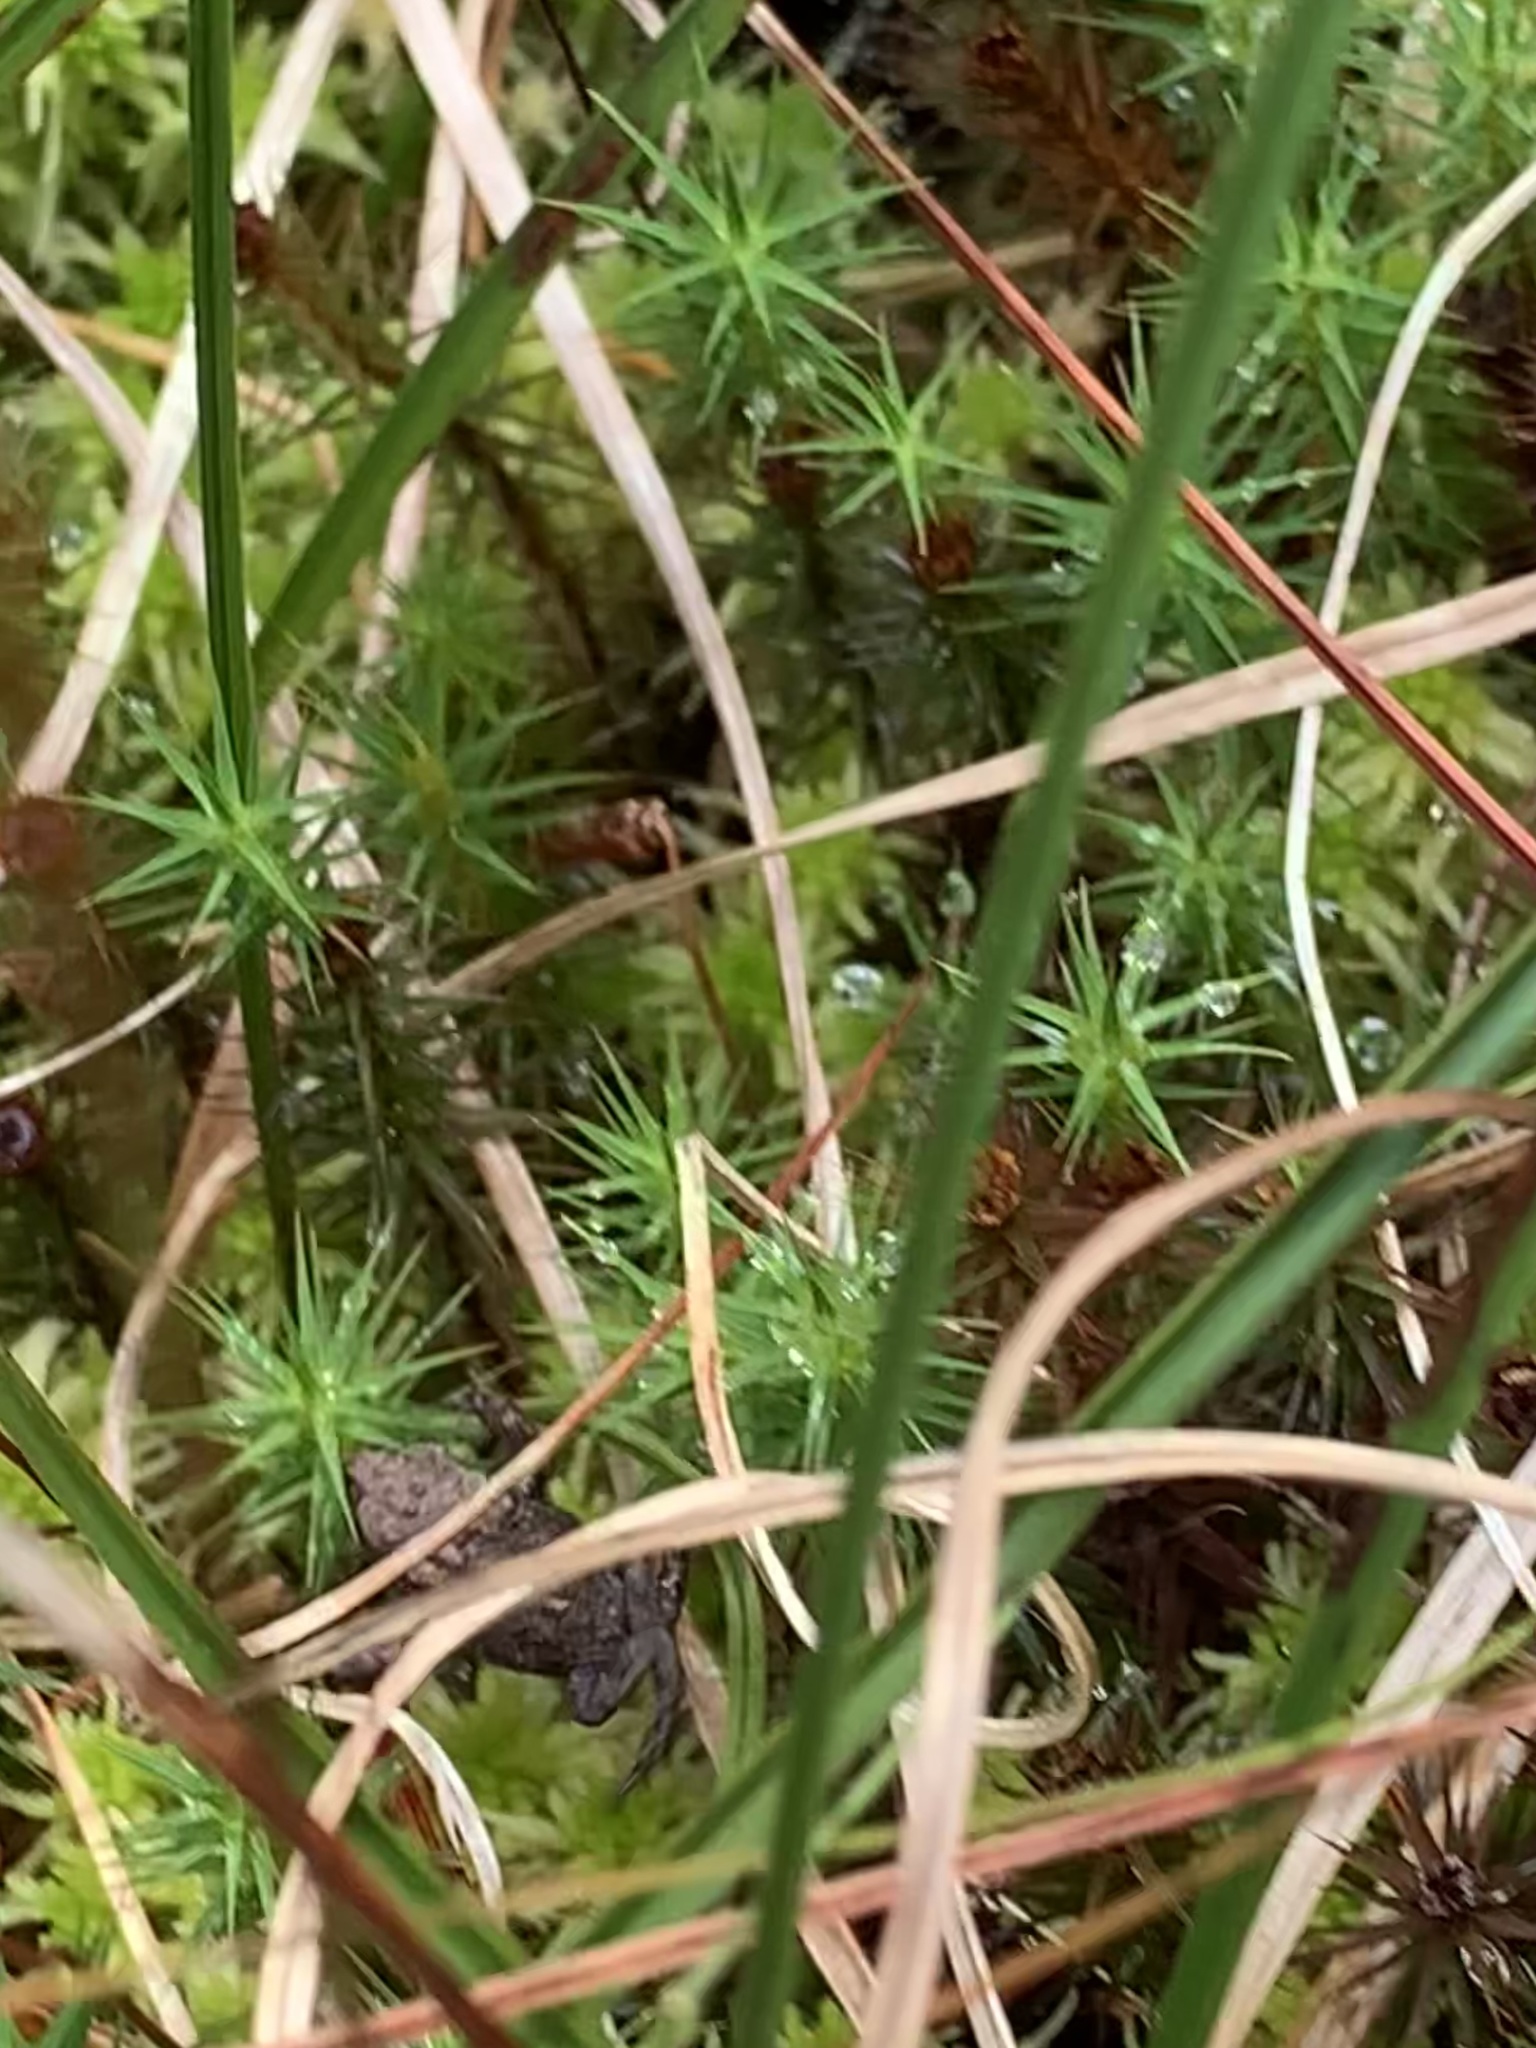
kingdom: Animalia
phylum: Chordata
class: Amphibia
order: Anura
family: Bufonidae
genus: Bufo
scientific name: Bufo bufo
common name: Common toad
